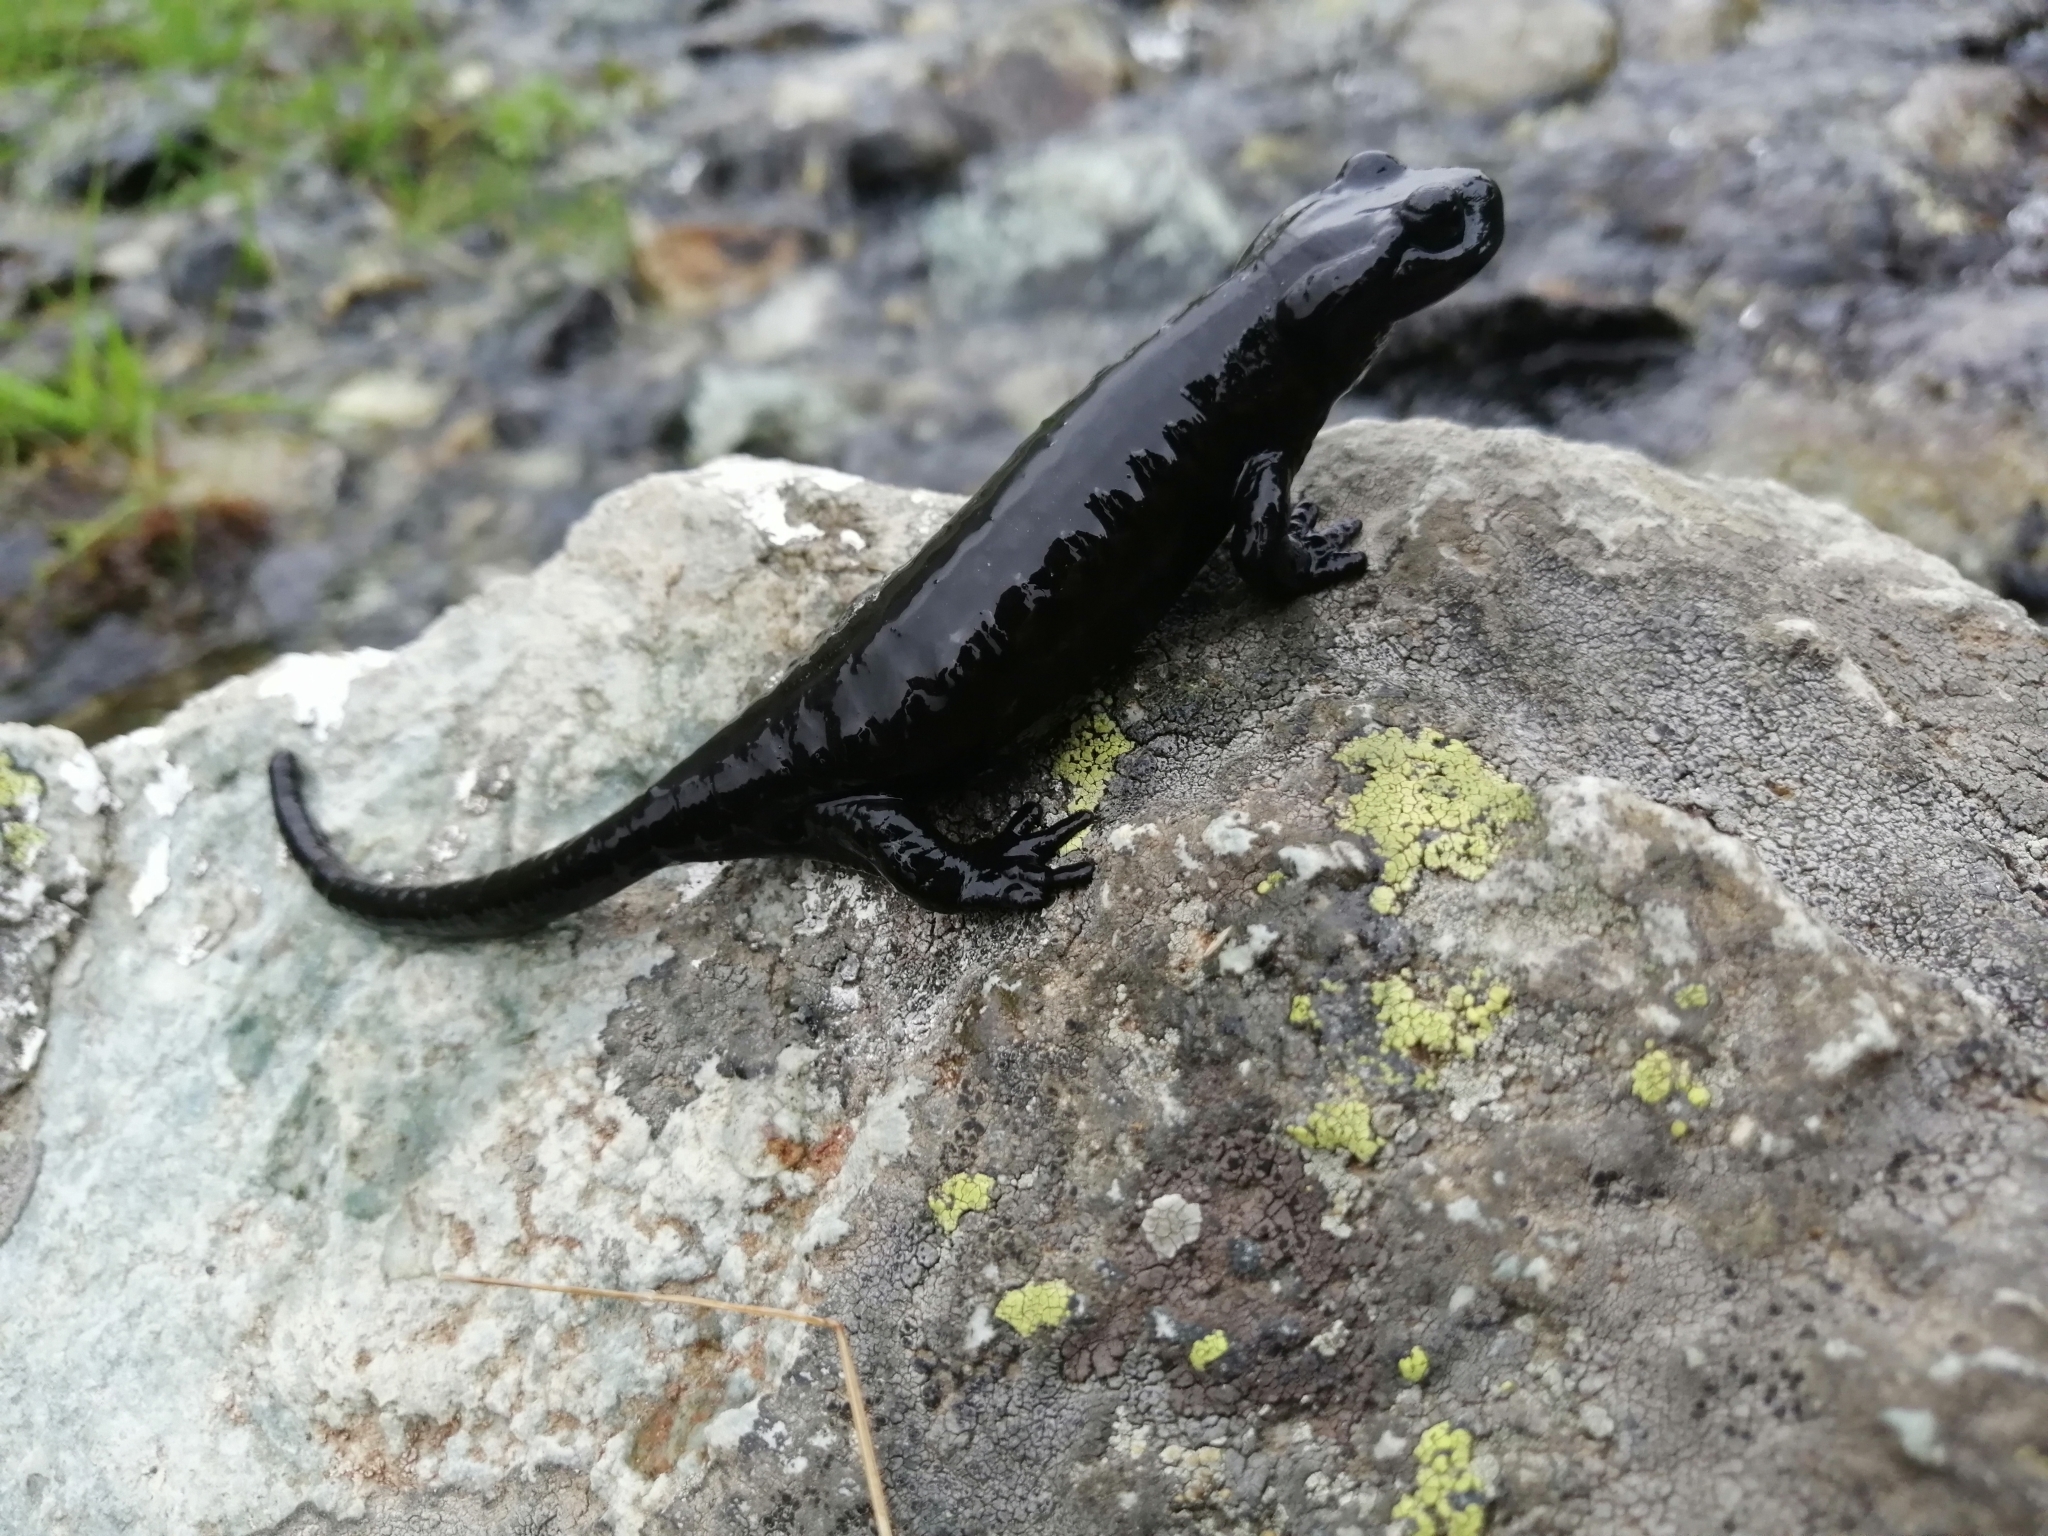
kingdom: Animalia
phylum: Chordata
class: Amphibia
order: Caudata
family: Salamandridae
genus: Salamandra
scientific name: Salamandra lanzai
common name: Lanzas fire salamander
